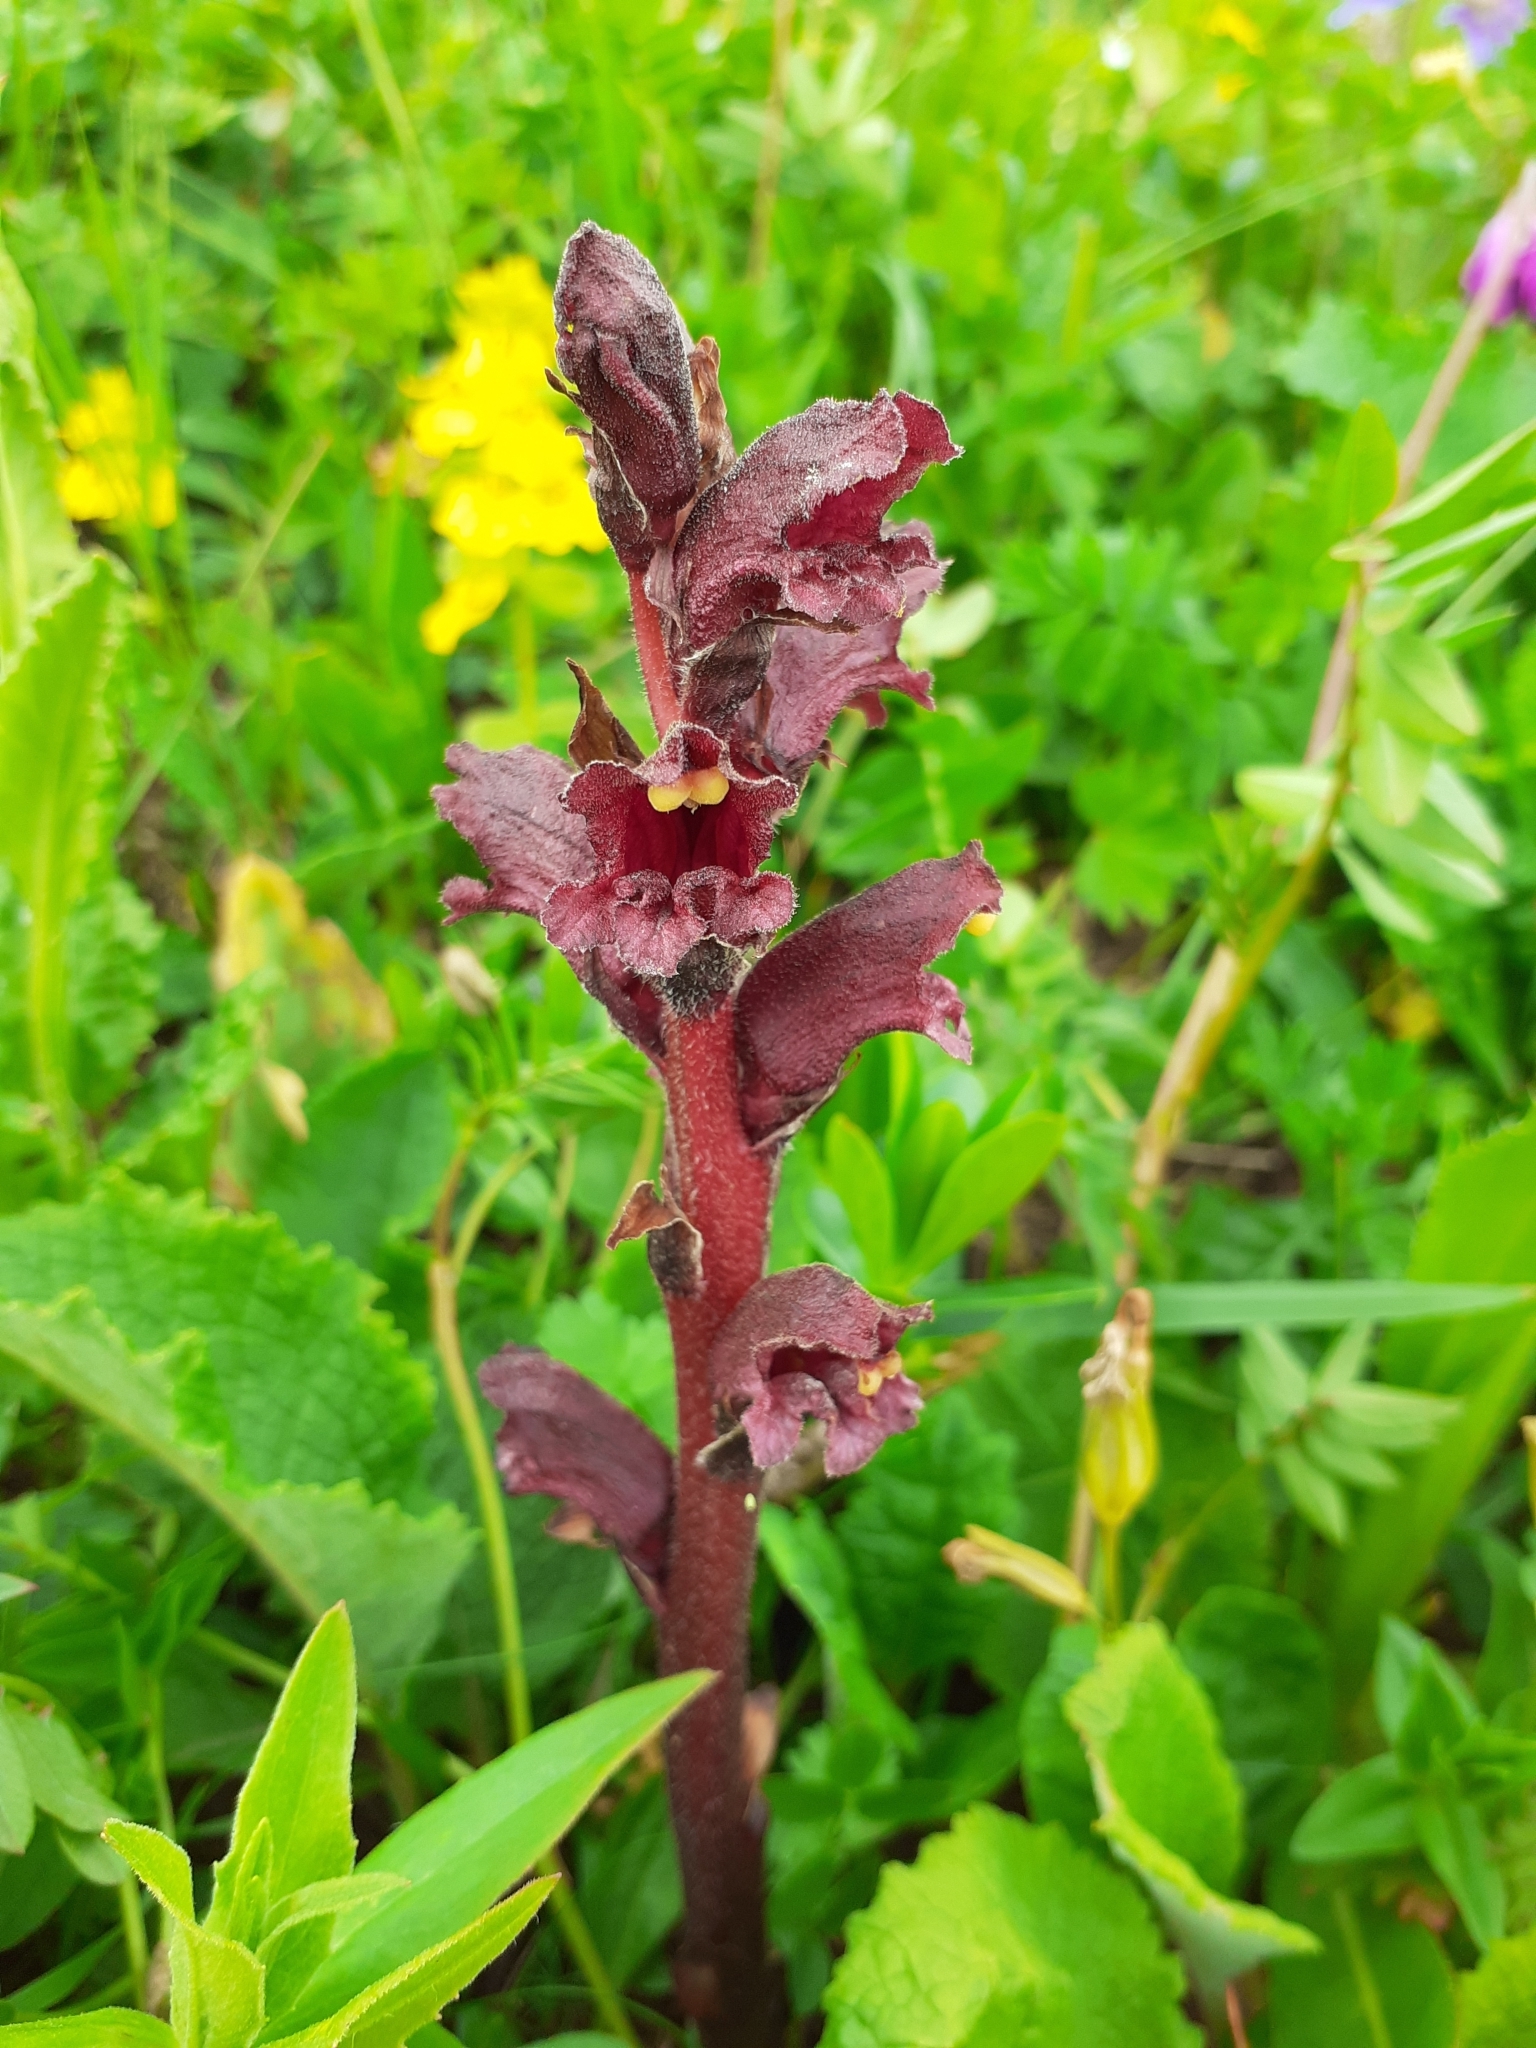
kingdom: Plantae
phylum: Tracheophyta
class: Magnoliopsida
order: Lamiales
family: Orobanchaceae
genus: Orobanche
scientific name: Orobanche gamosepala
